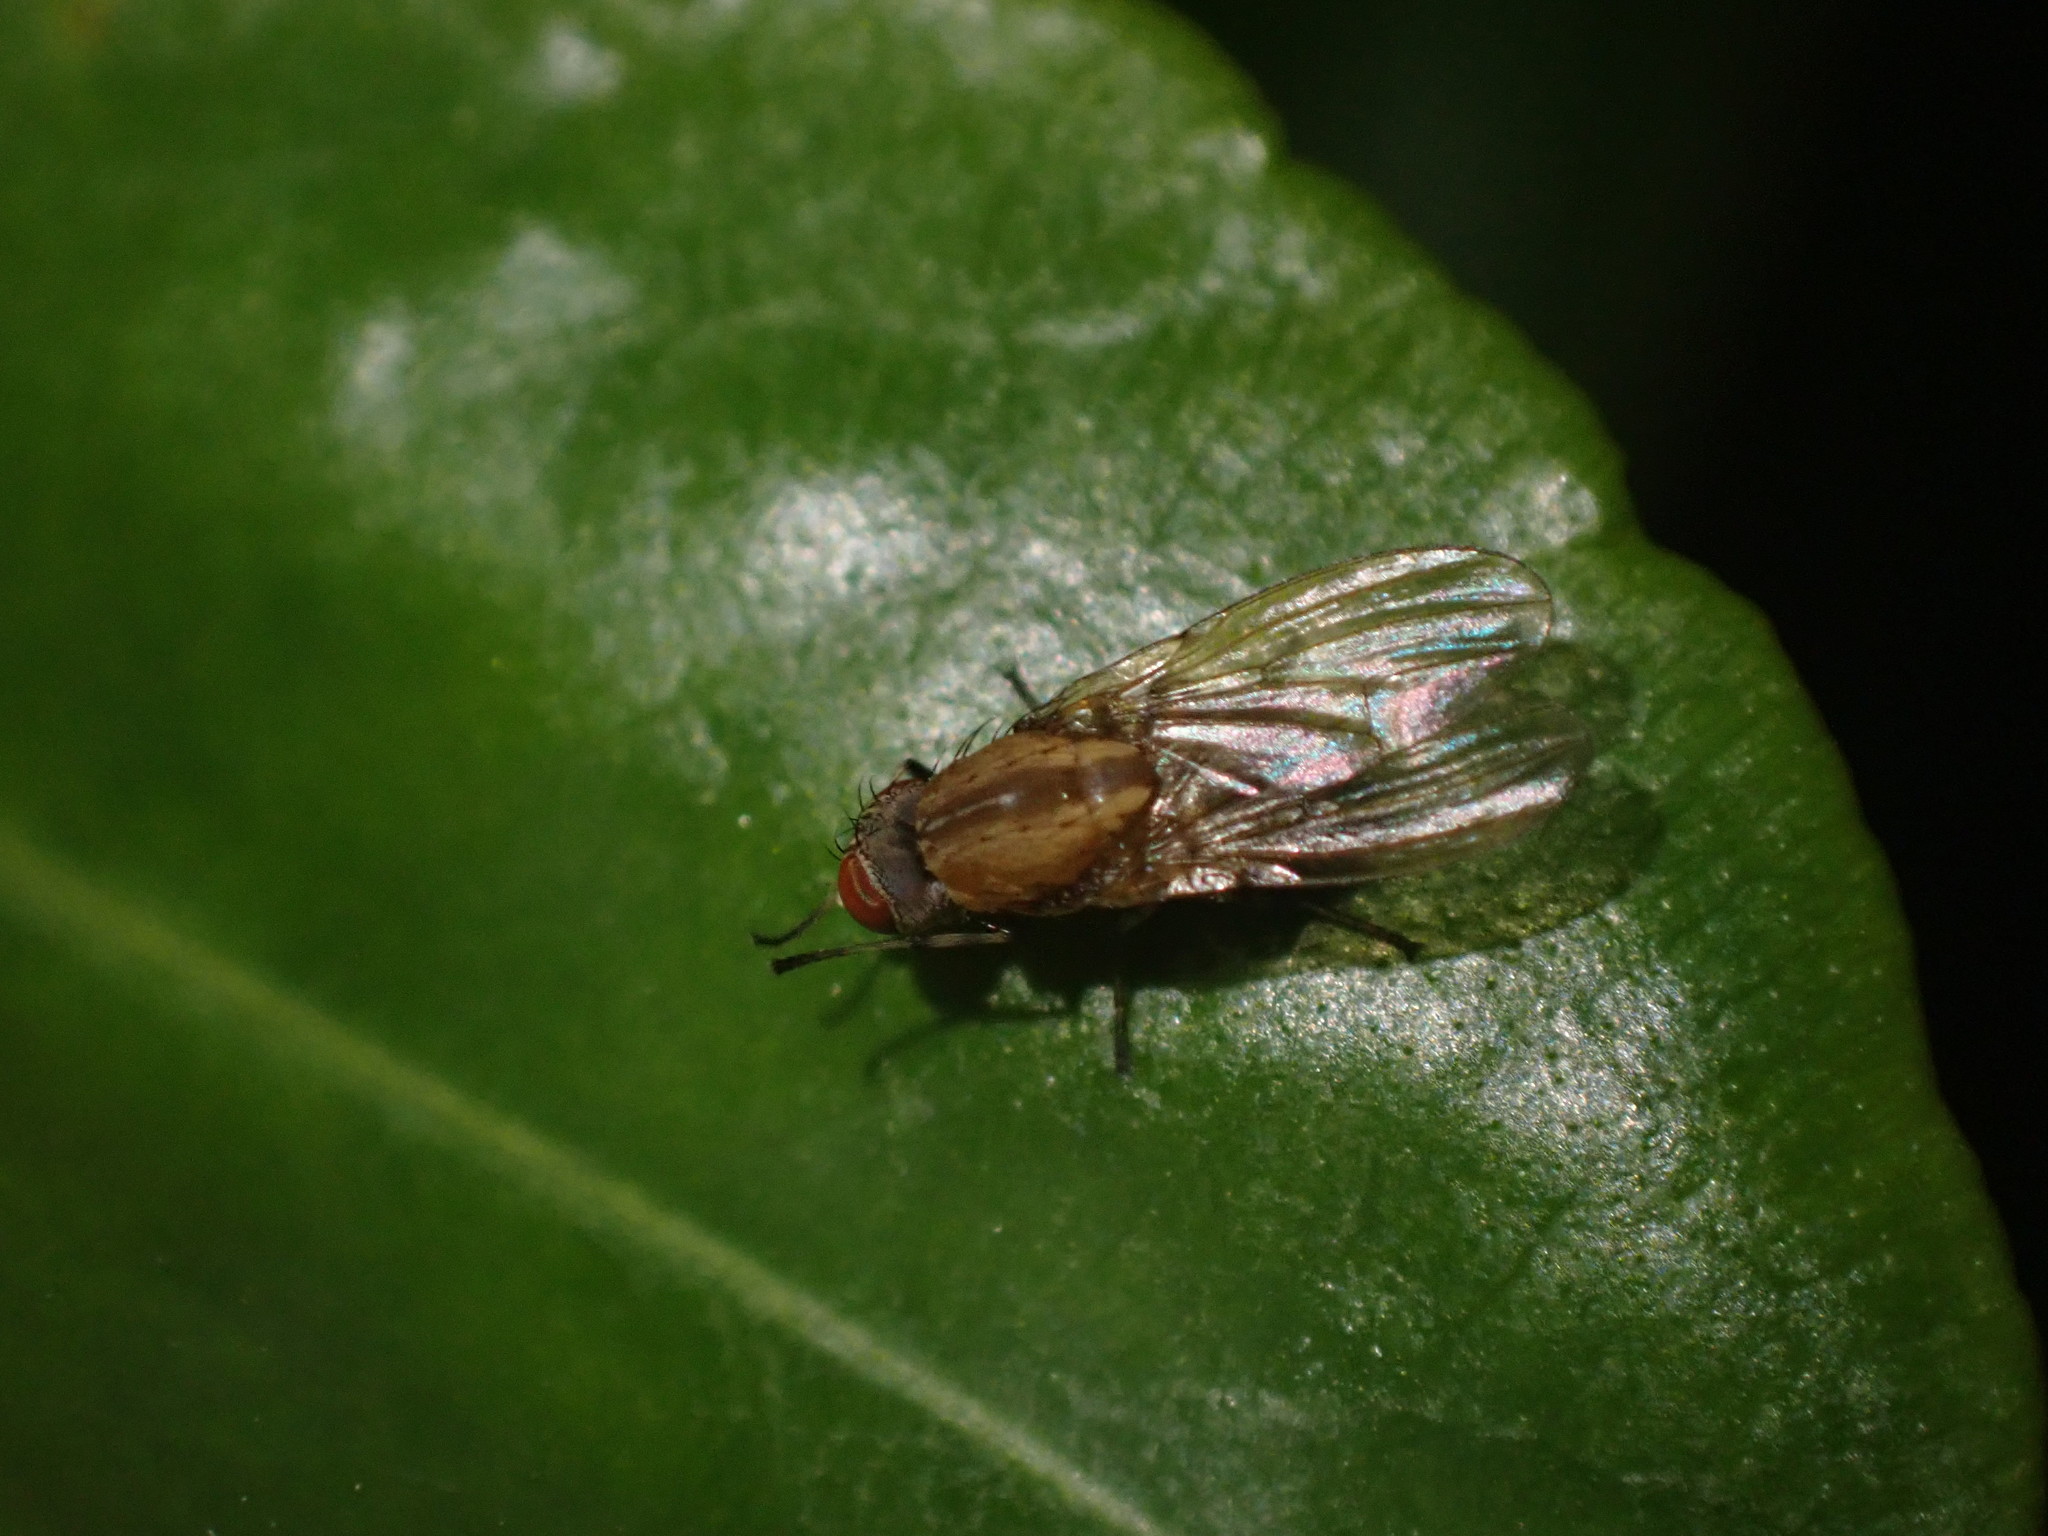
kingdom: Animalia
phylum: Arthropoda
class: Insecta
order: Diptera
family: Lauxaniidae
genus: Sapromyza
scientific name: Sapromyza neozelandica
